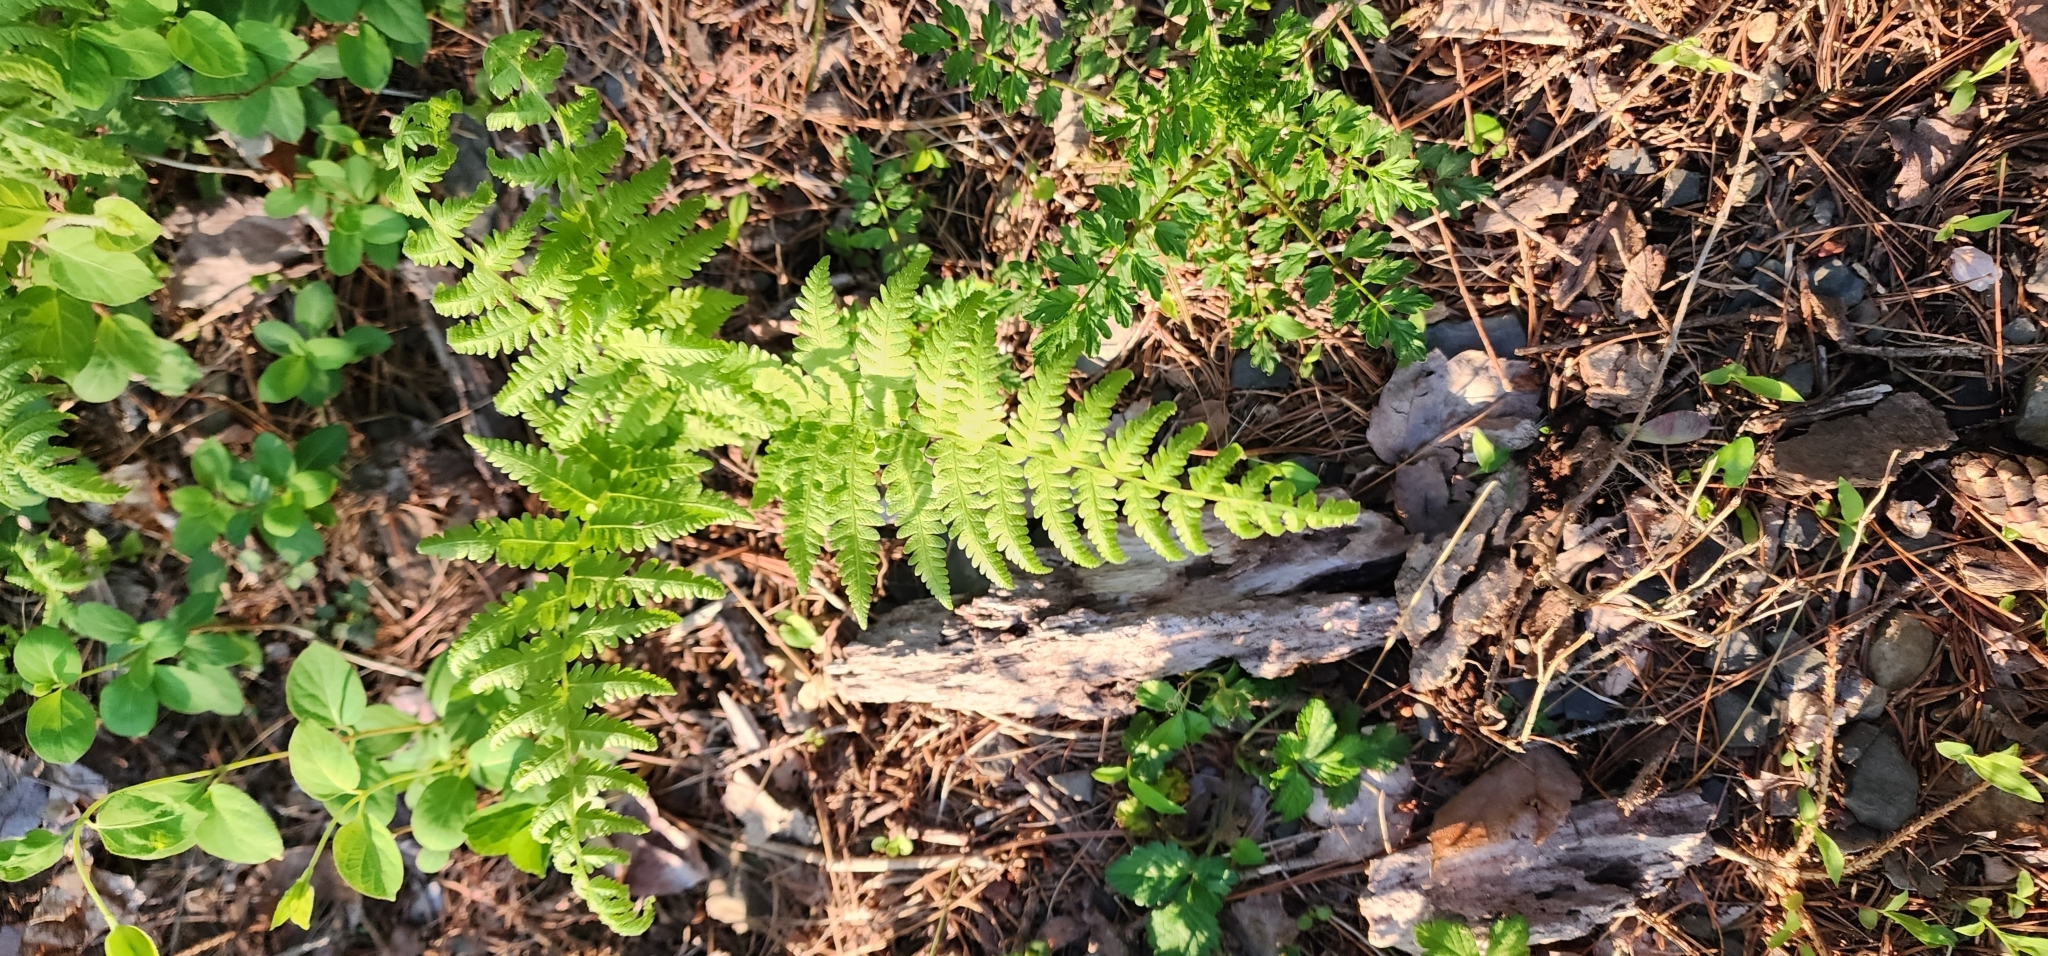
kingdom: Plantae
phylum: Tracheophyta
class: Polypodiopsida
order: Polypodiales
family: Thelypteridaceae
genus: Amauropelta
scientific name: Amauropelta noveboracensis
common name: New york fern
